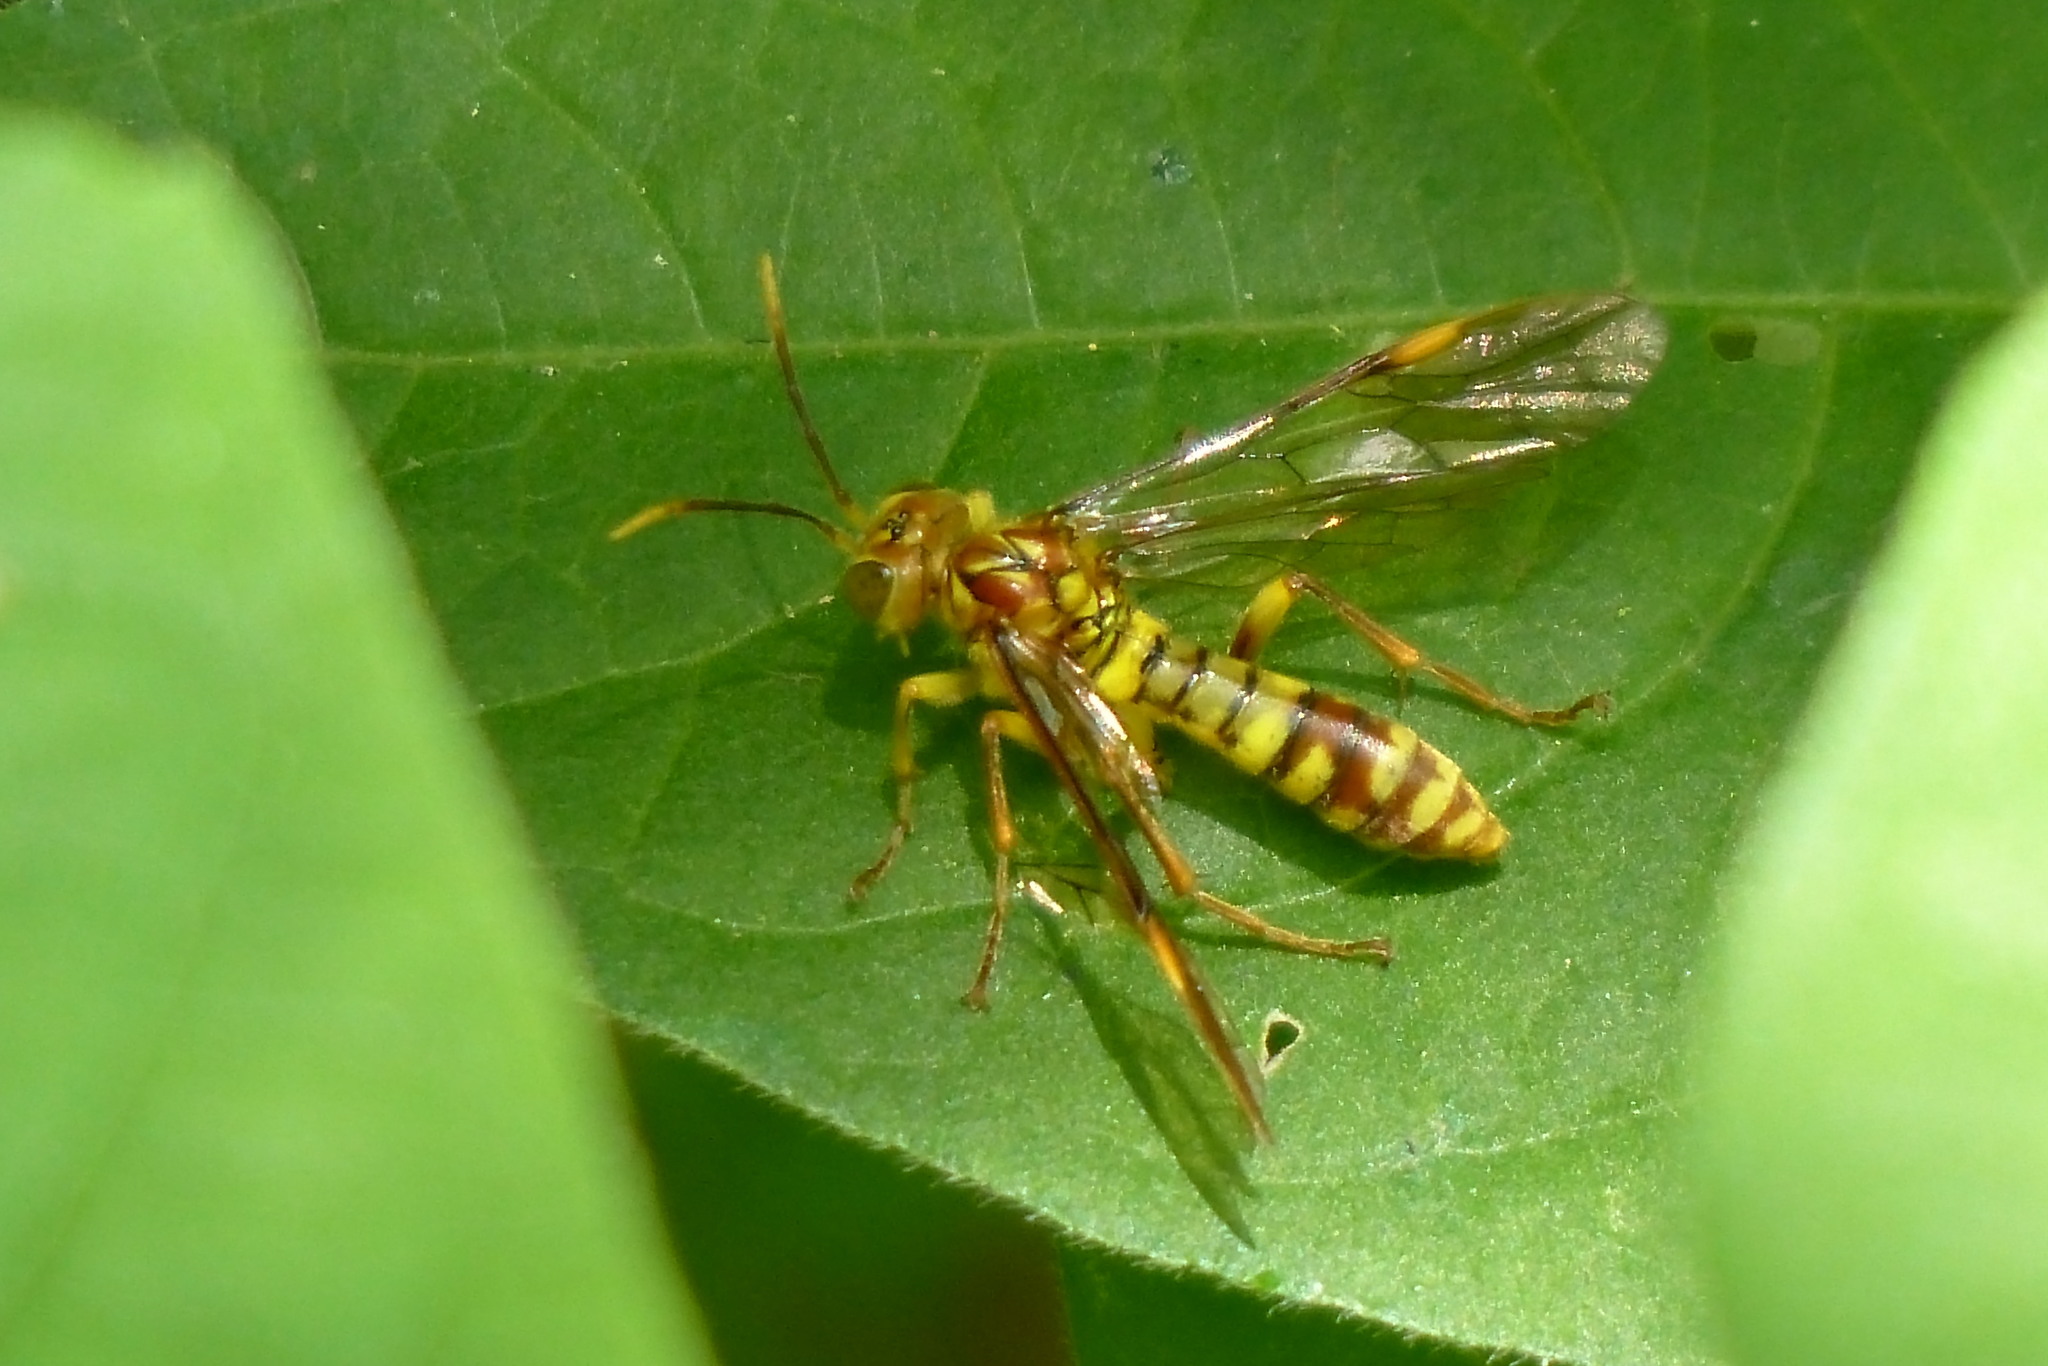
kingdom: Animalia
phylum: Arthropoda
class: Insecta
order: Hymenoptera
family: Tenthredinidae
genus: Tenthredo
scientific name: Tenthredo scita
